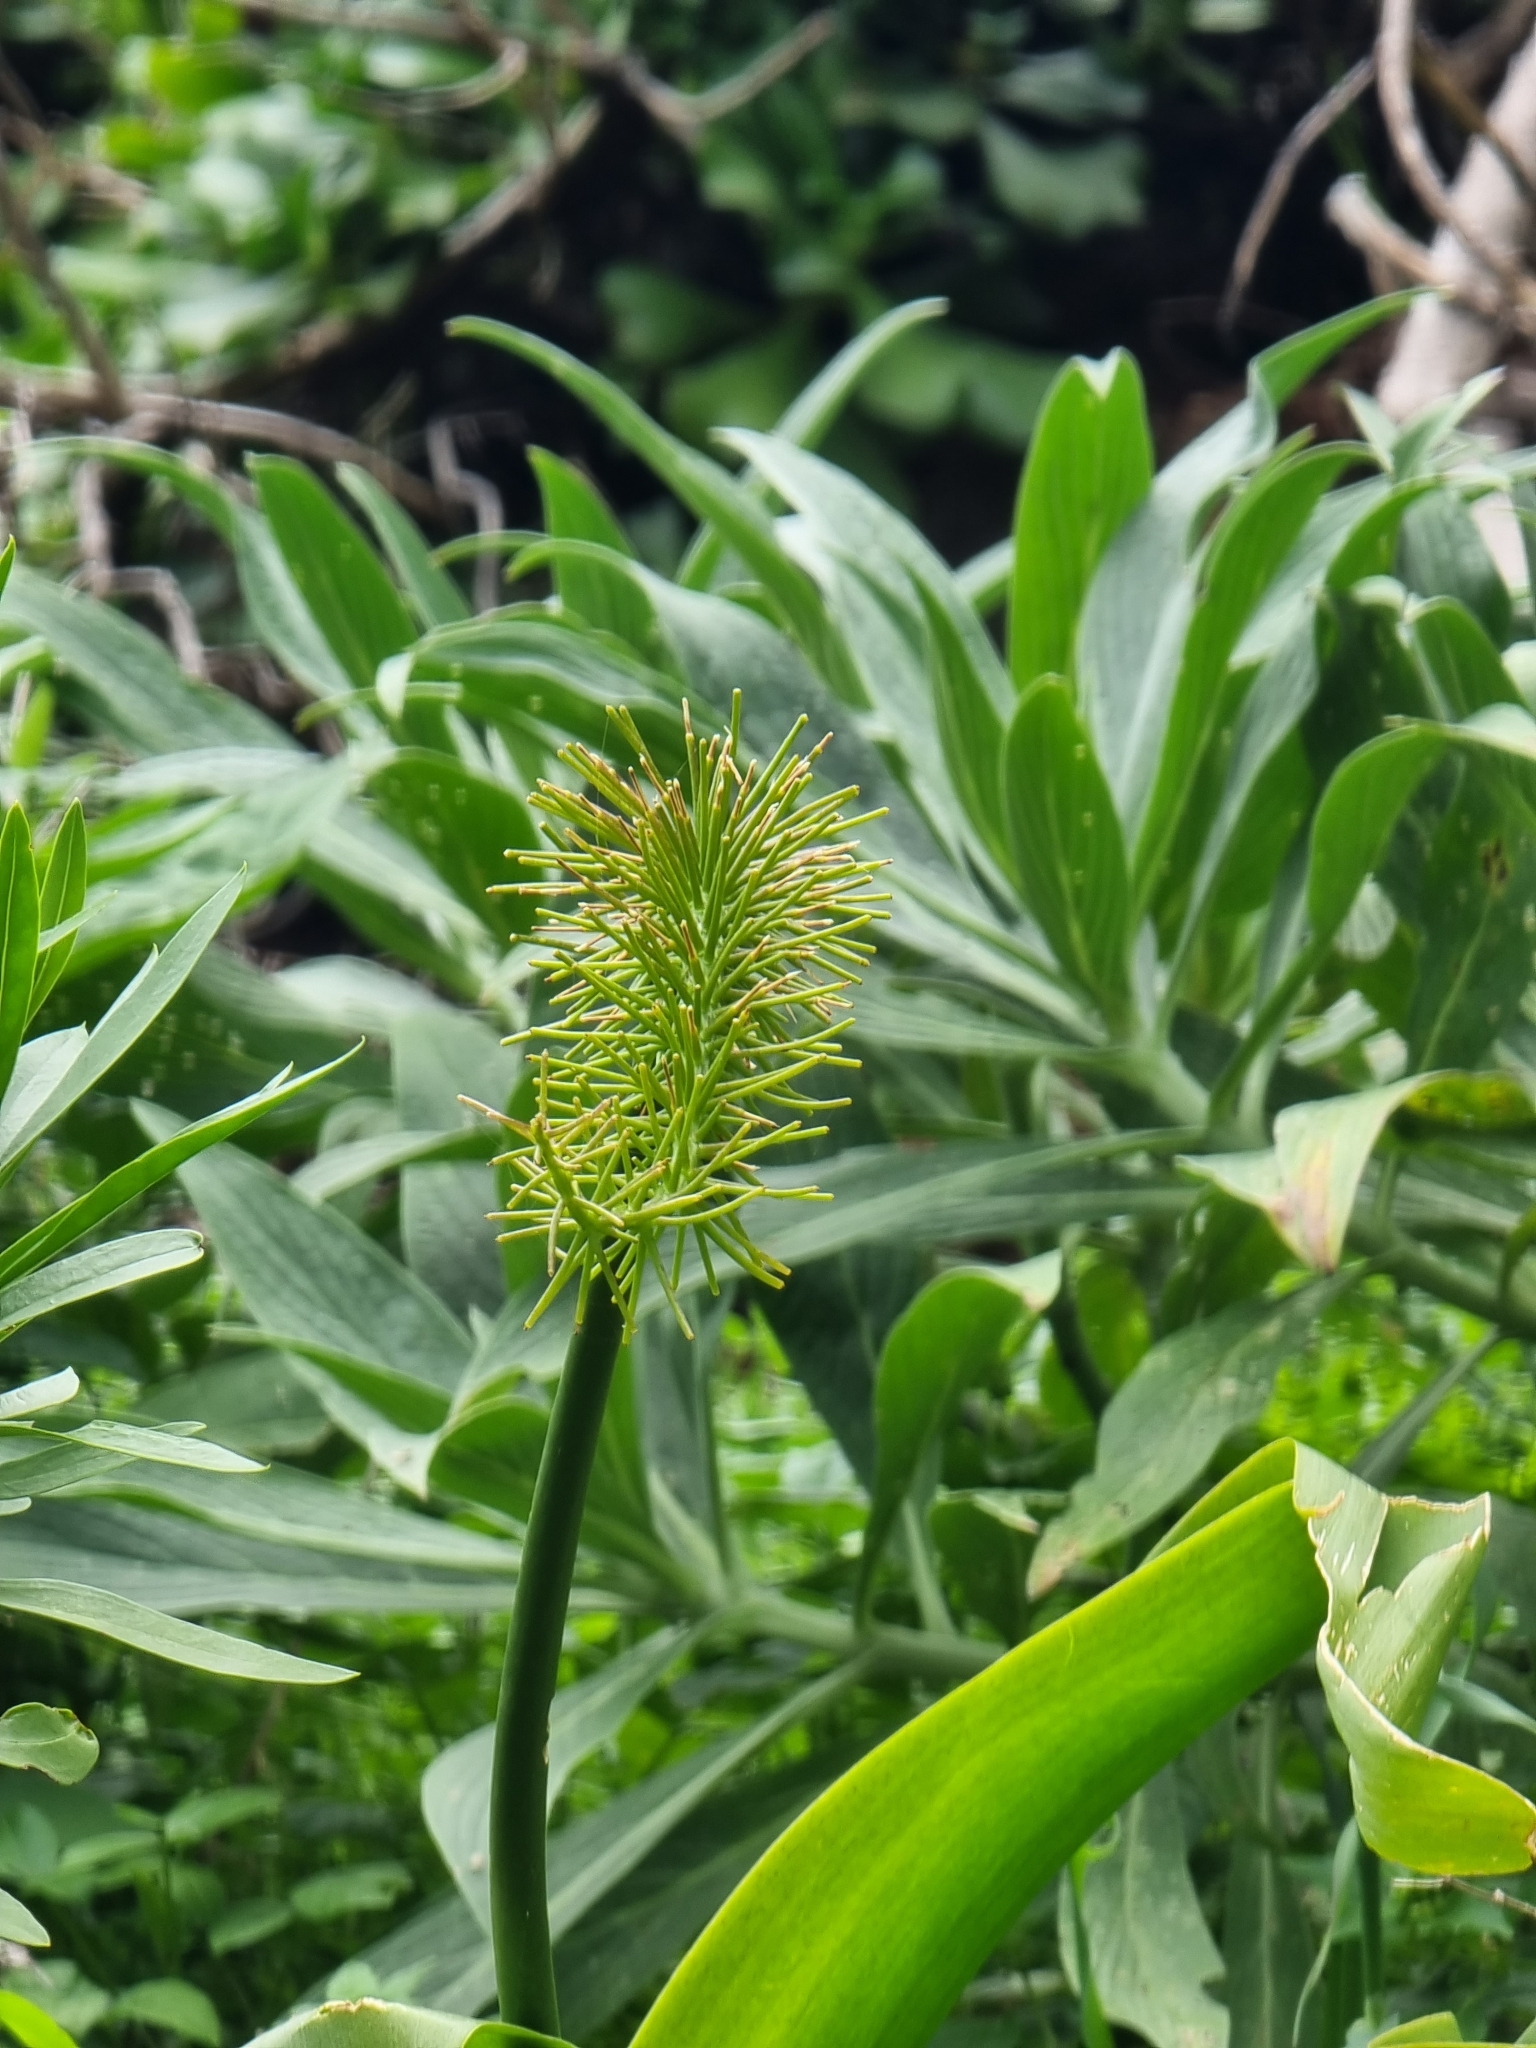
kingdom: Plantae
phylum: Tracheophyta
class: Liliopsida
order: Asparagales
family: Asparagaceae
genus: Scilla
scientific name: Scilla madeirensis
